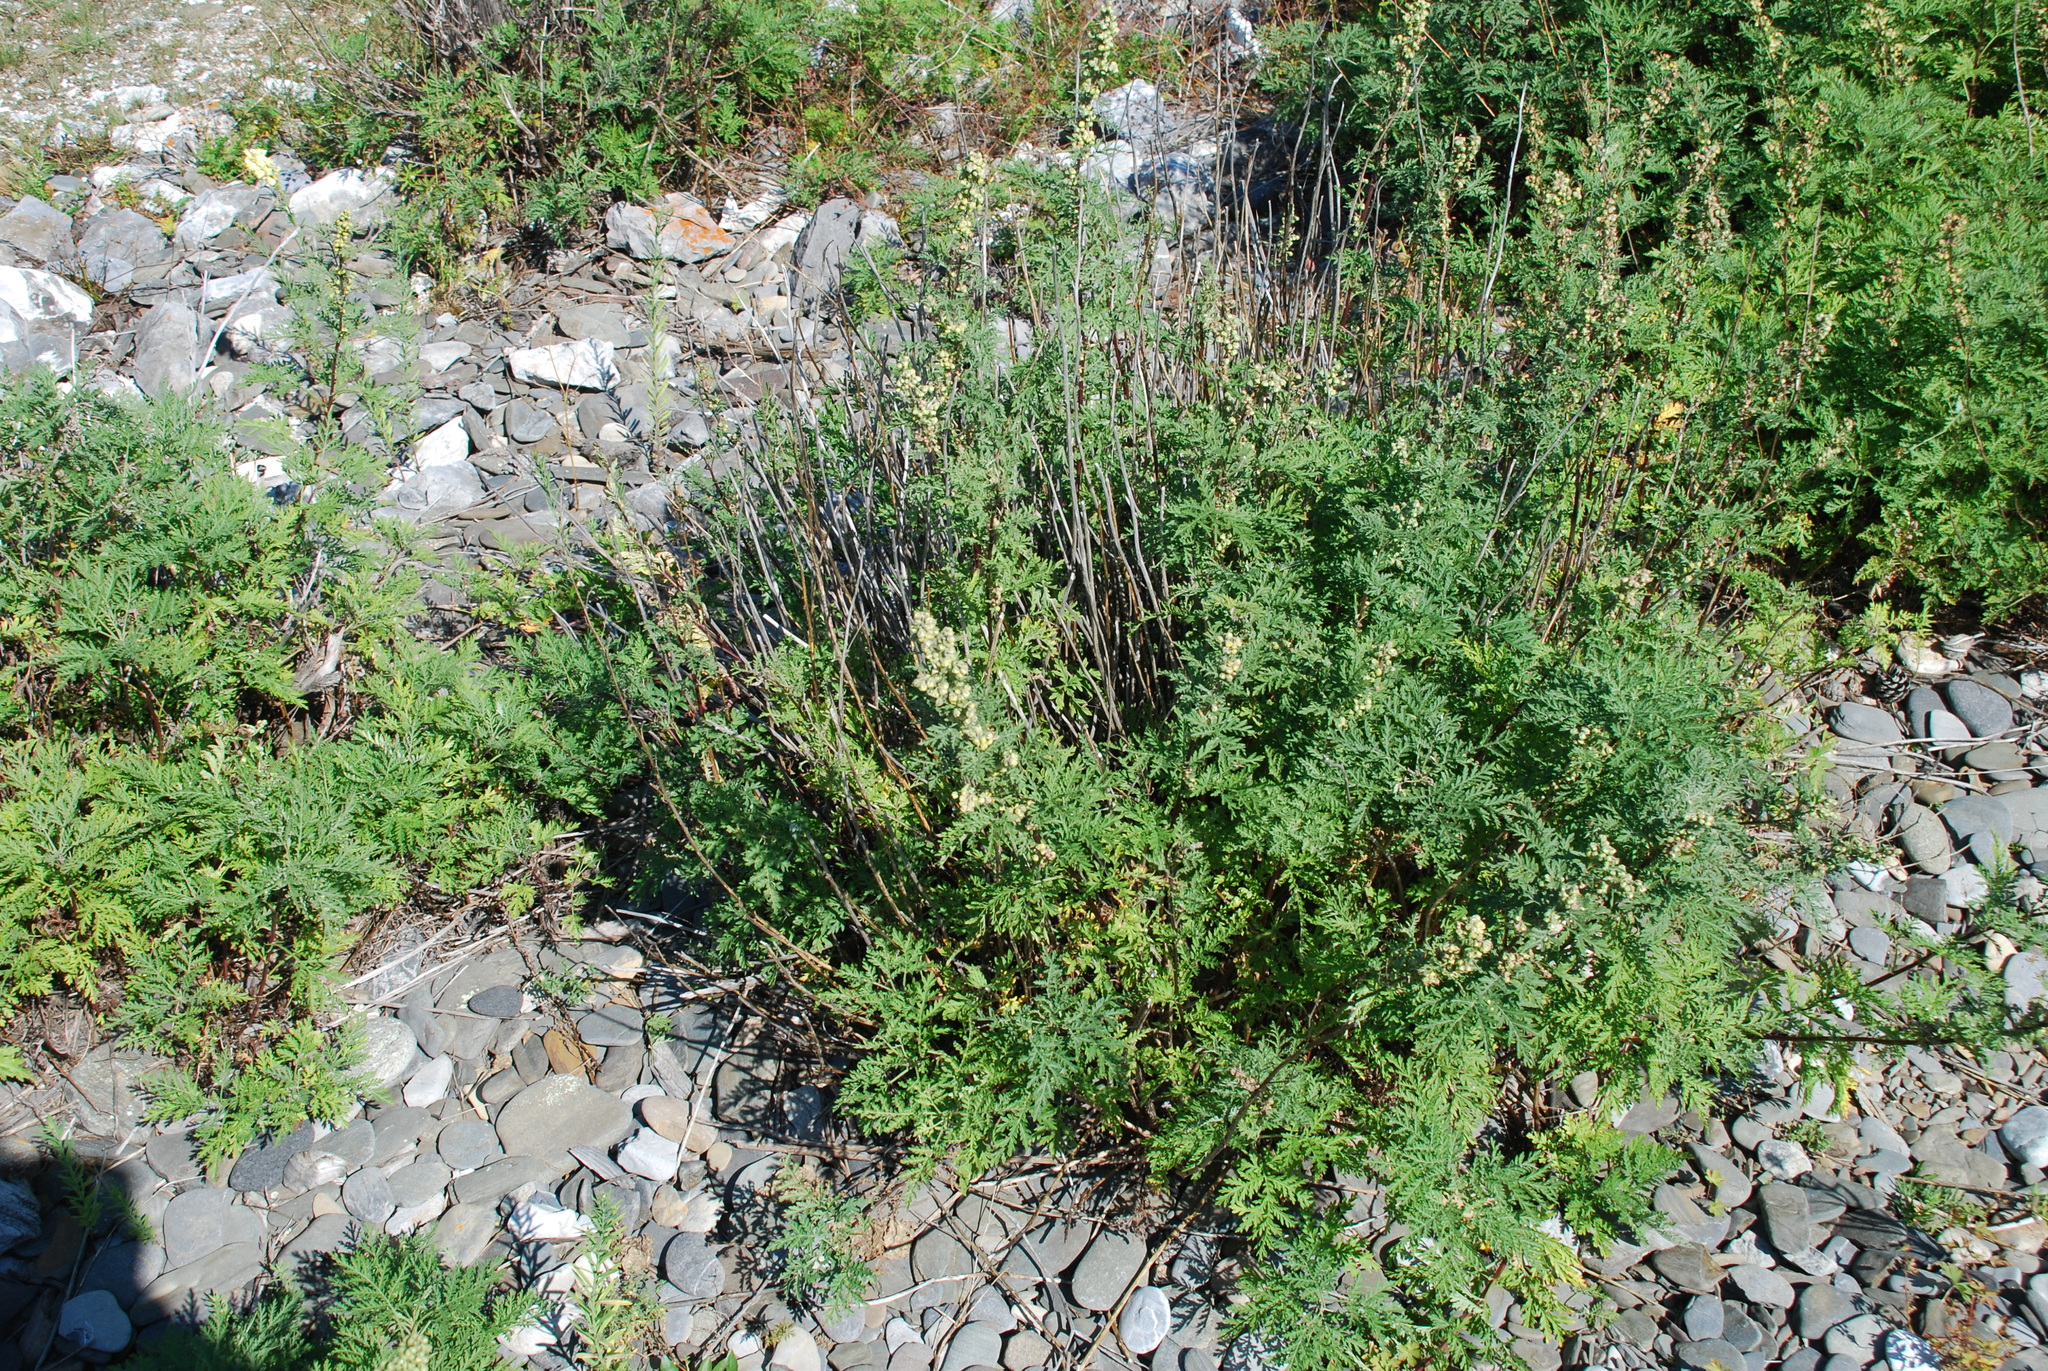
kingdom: Plantae
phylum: Tracheophyta
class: Magnoliopsida
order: Asterales
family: Asteraceae
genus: Artemisia
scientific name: Artemisia gmelinii
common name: Gmelin's wormwood
